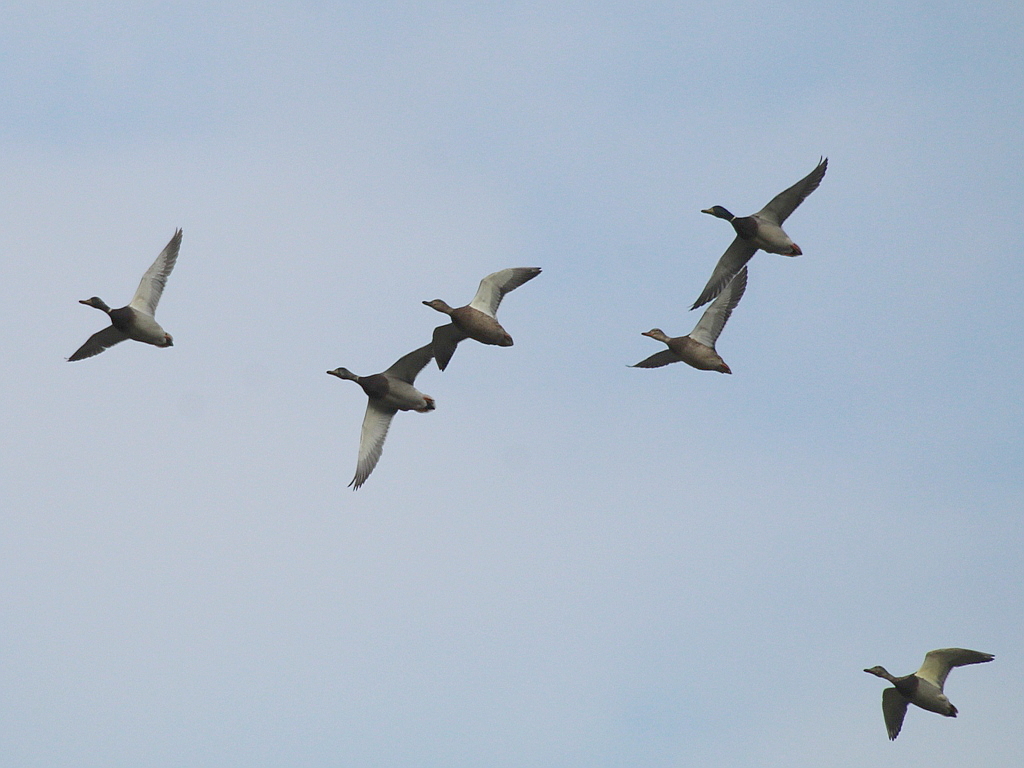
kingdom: Animalia
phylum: Chordata
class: Aves
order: Anseriformes
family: Anatidae
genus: Anas
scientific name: Anas platyrhynchos
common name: Mallard
